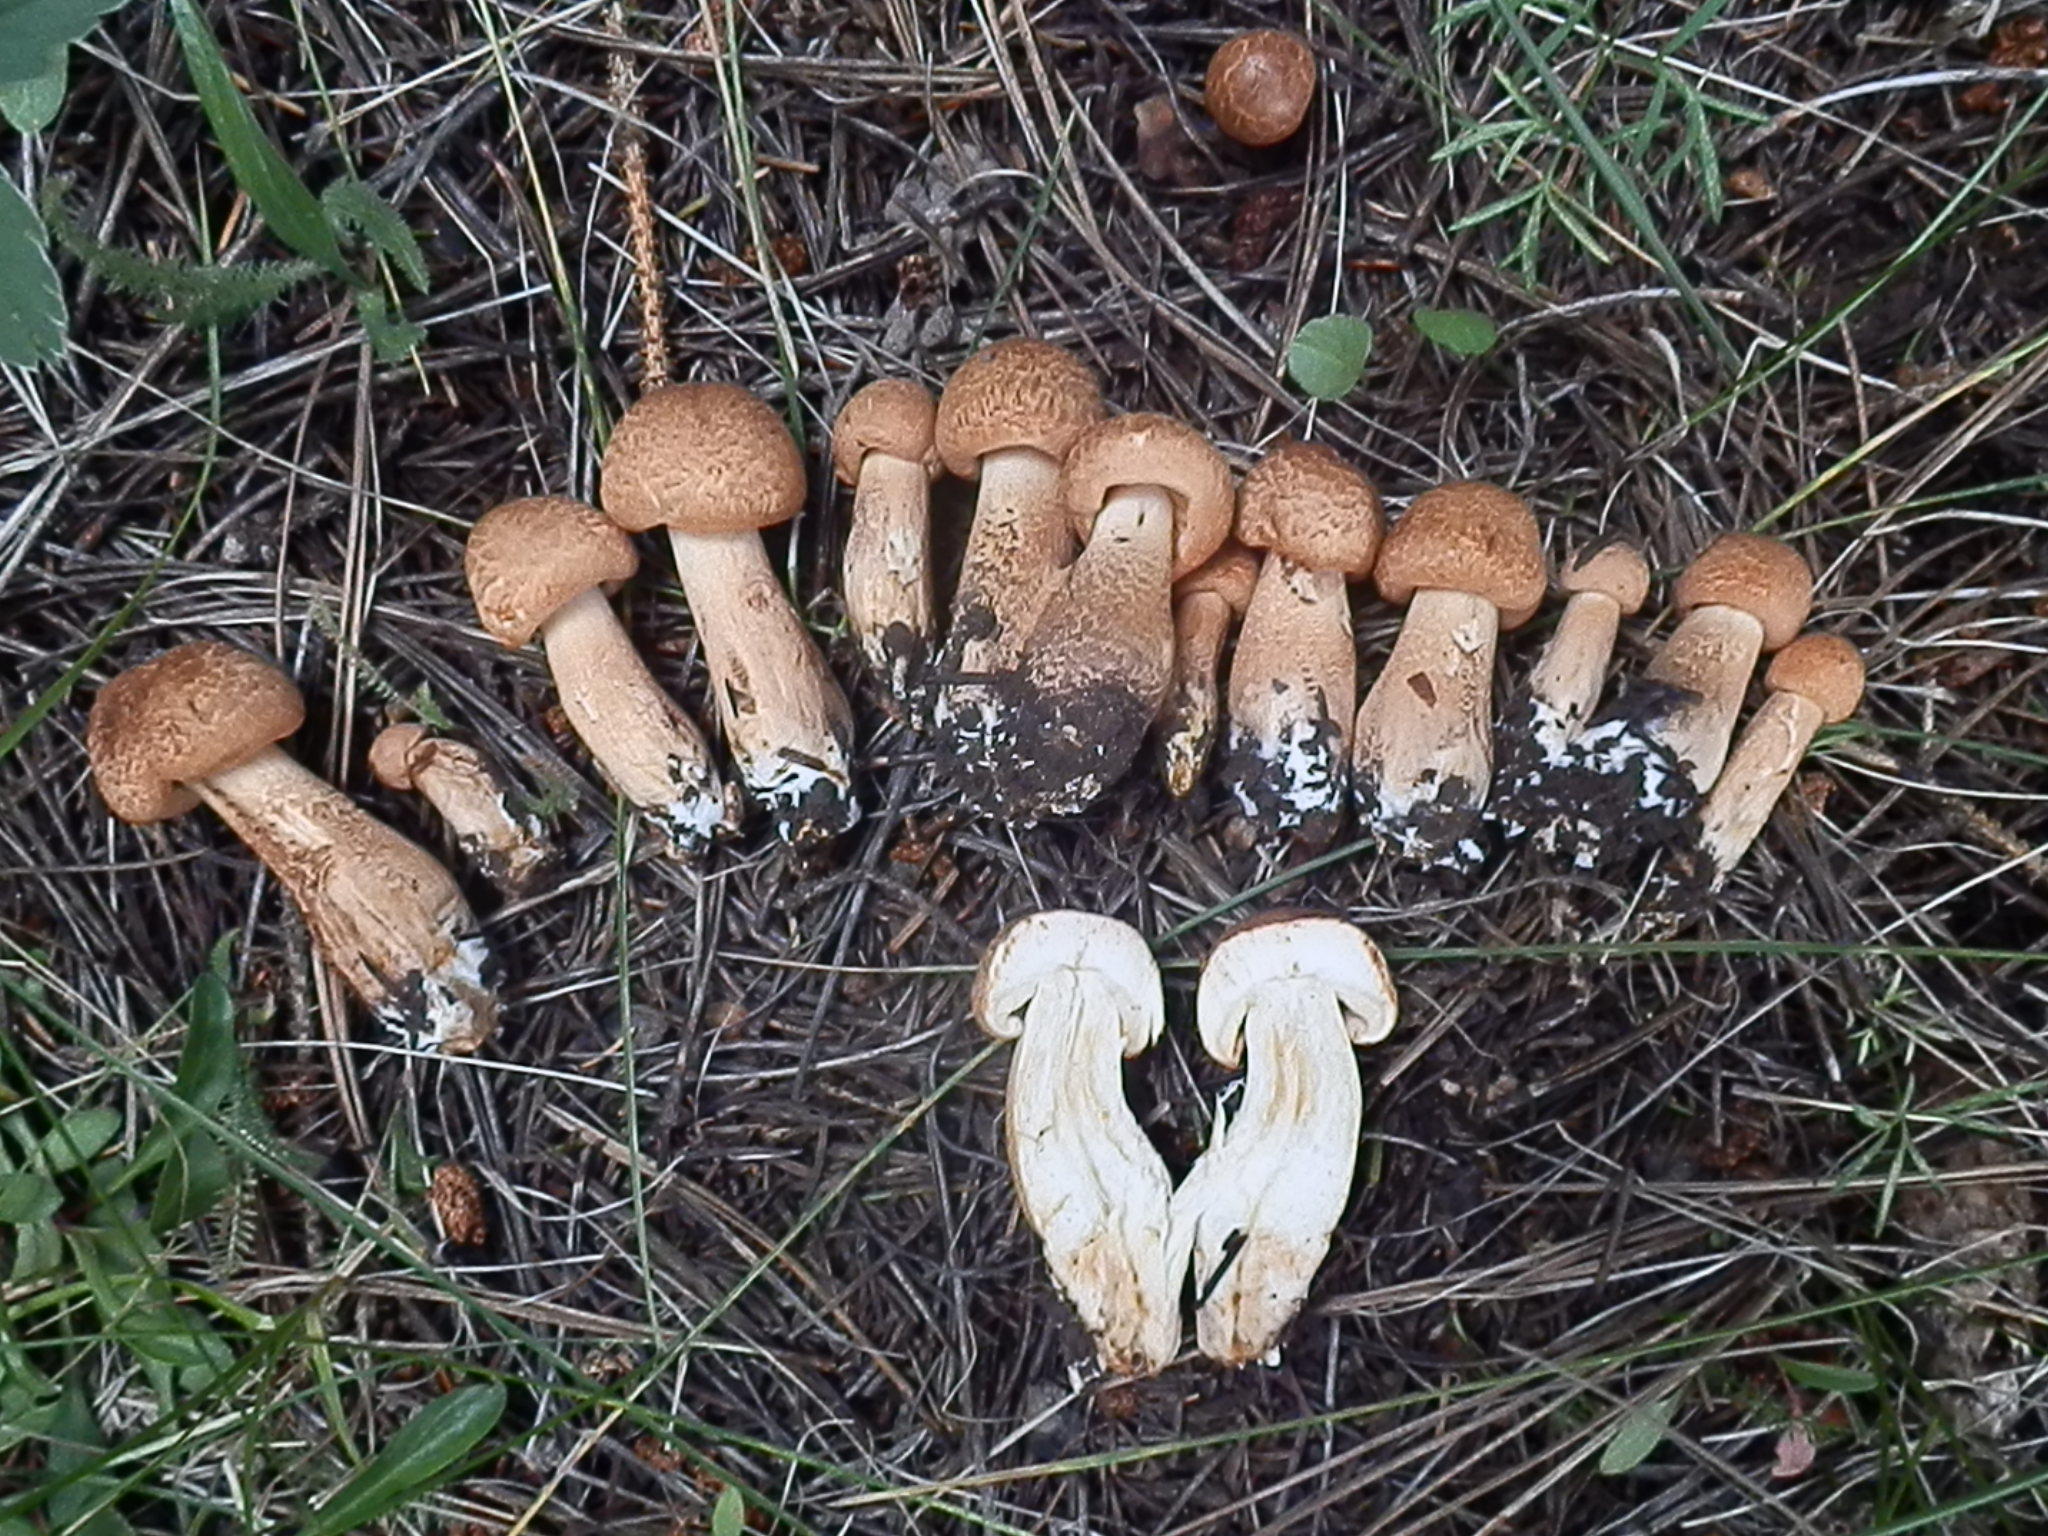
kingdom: Fungi
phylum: Basidiomycota
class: Agaricomycetes
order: Agaricales
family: Tricholomataceae
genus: Tricholoma
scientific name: Tricholoma vaccinum
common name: Scaly knight
